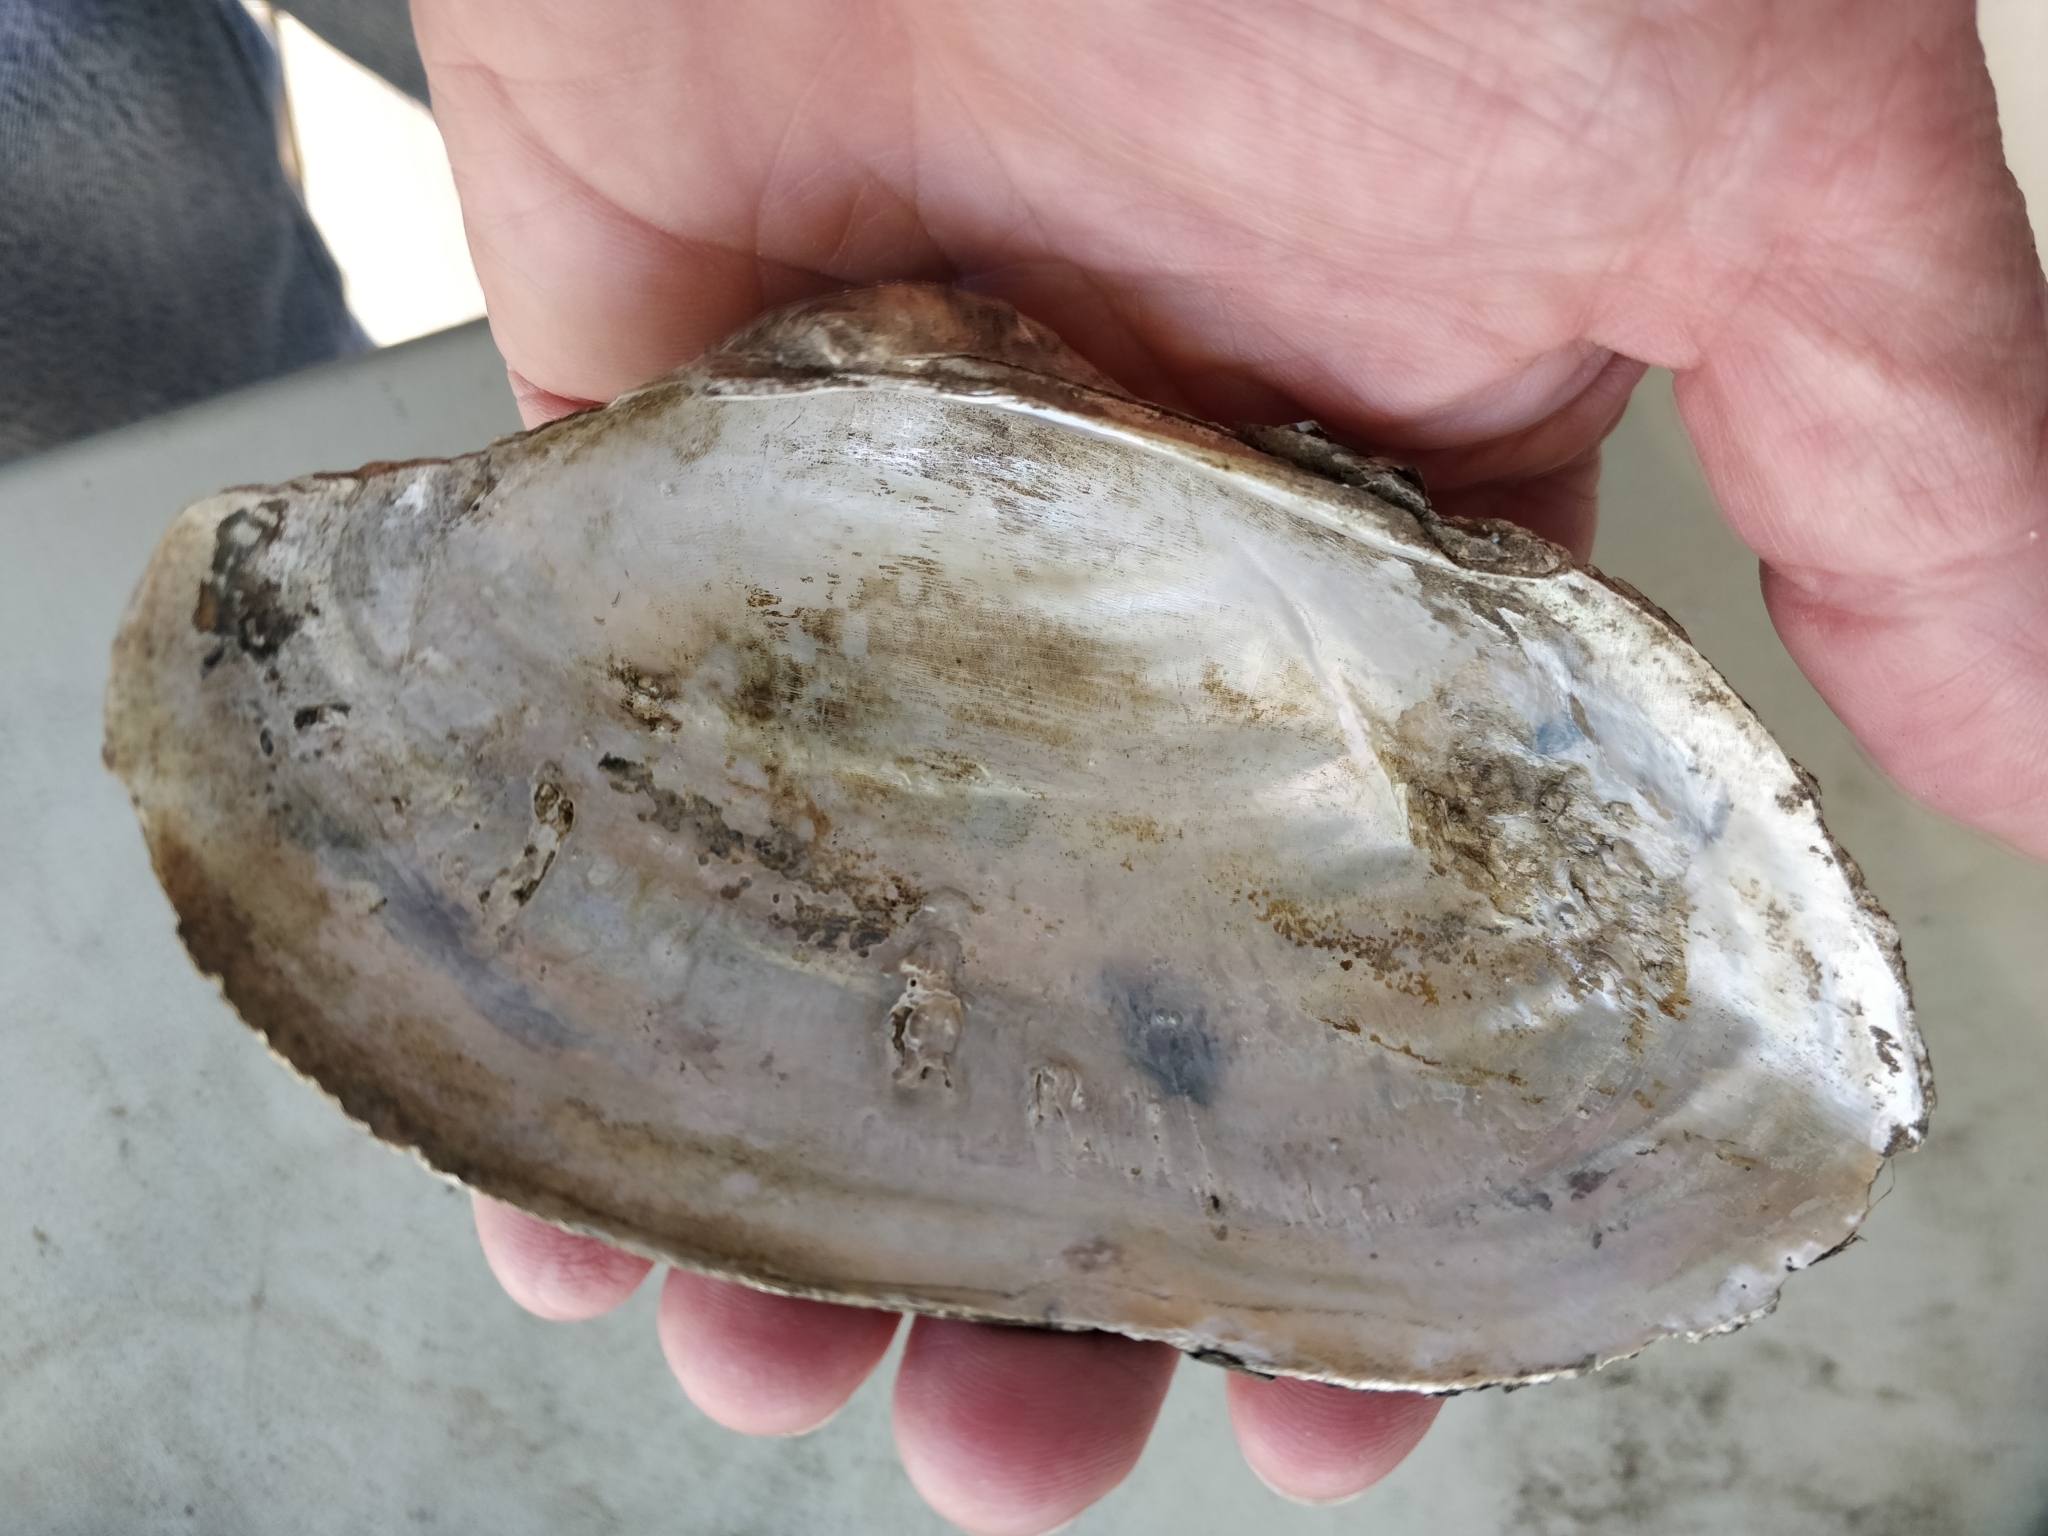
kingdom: Animalia
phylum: Mollusca
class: Bivalvia
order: Unionida
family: Unionidae
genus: Pyganodon
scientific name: Pyganodon grandis
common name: Giant floater
